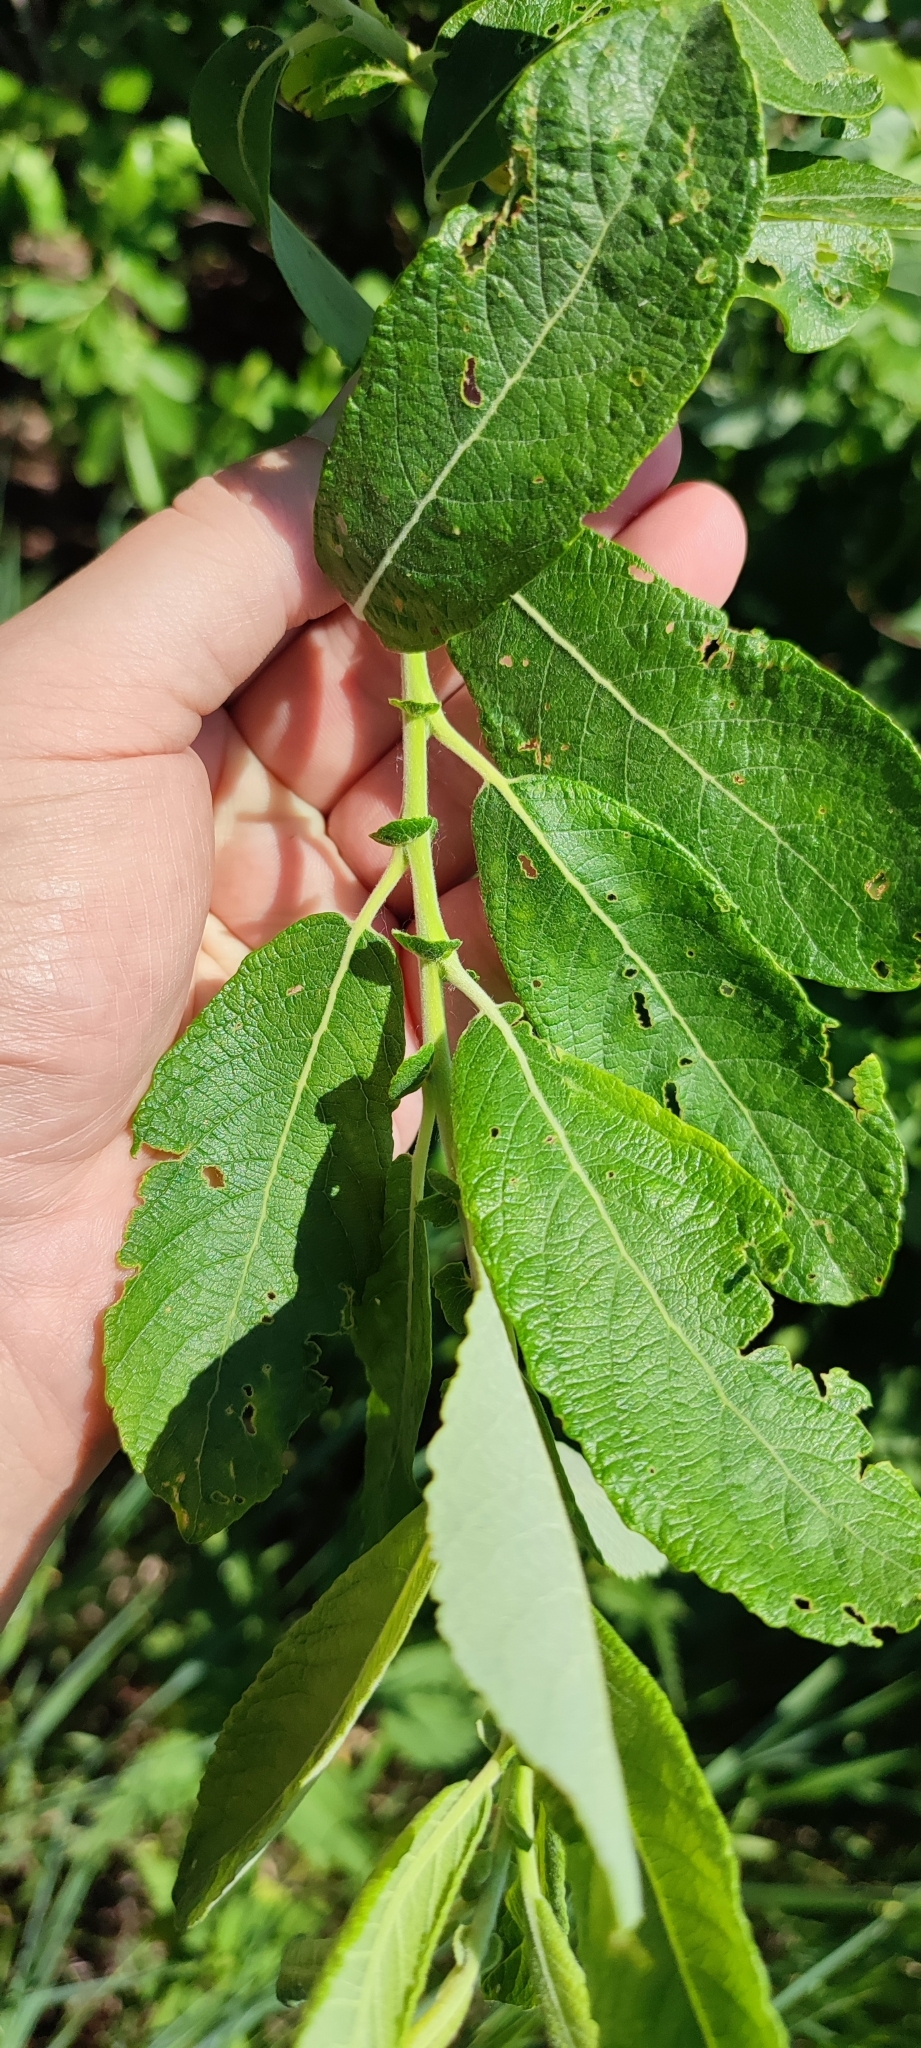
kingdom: Plantae
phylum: Tracheophyta
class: Magnoliopsida
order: Malpighiales
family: Salicaceae
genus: Salix
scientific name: Salix cinerea
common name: Common sallow
